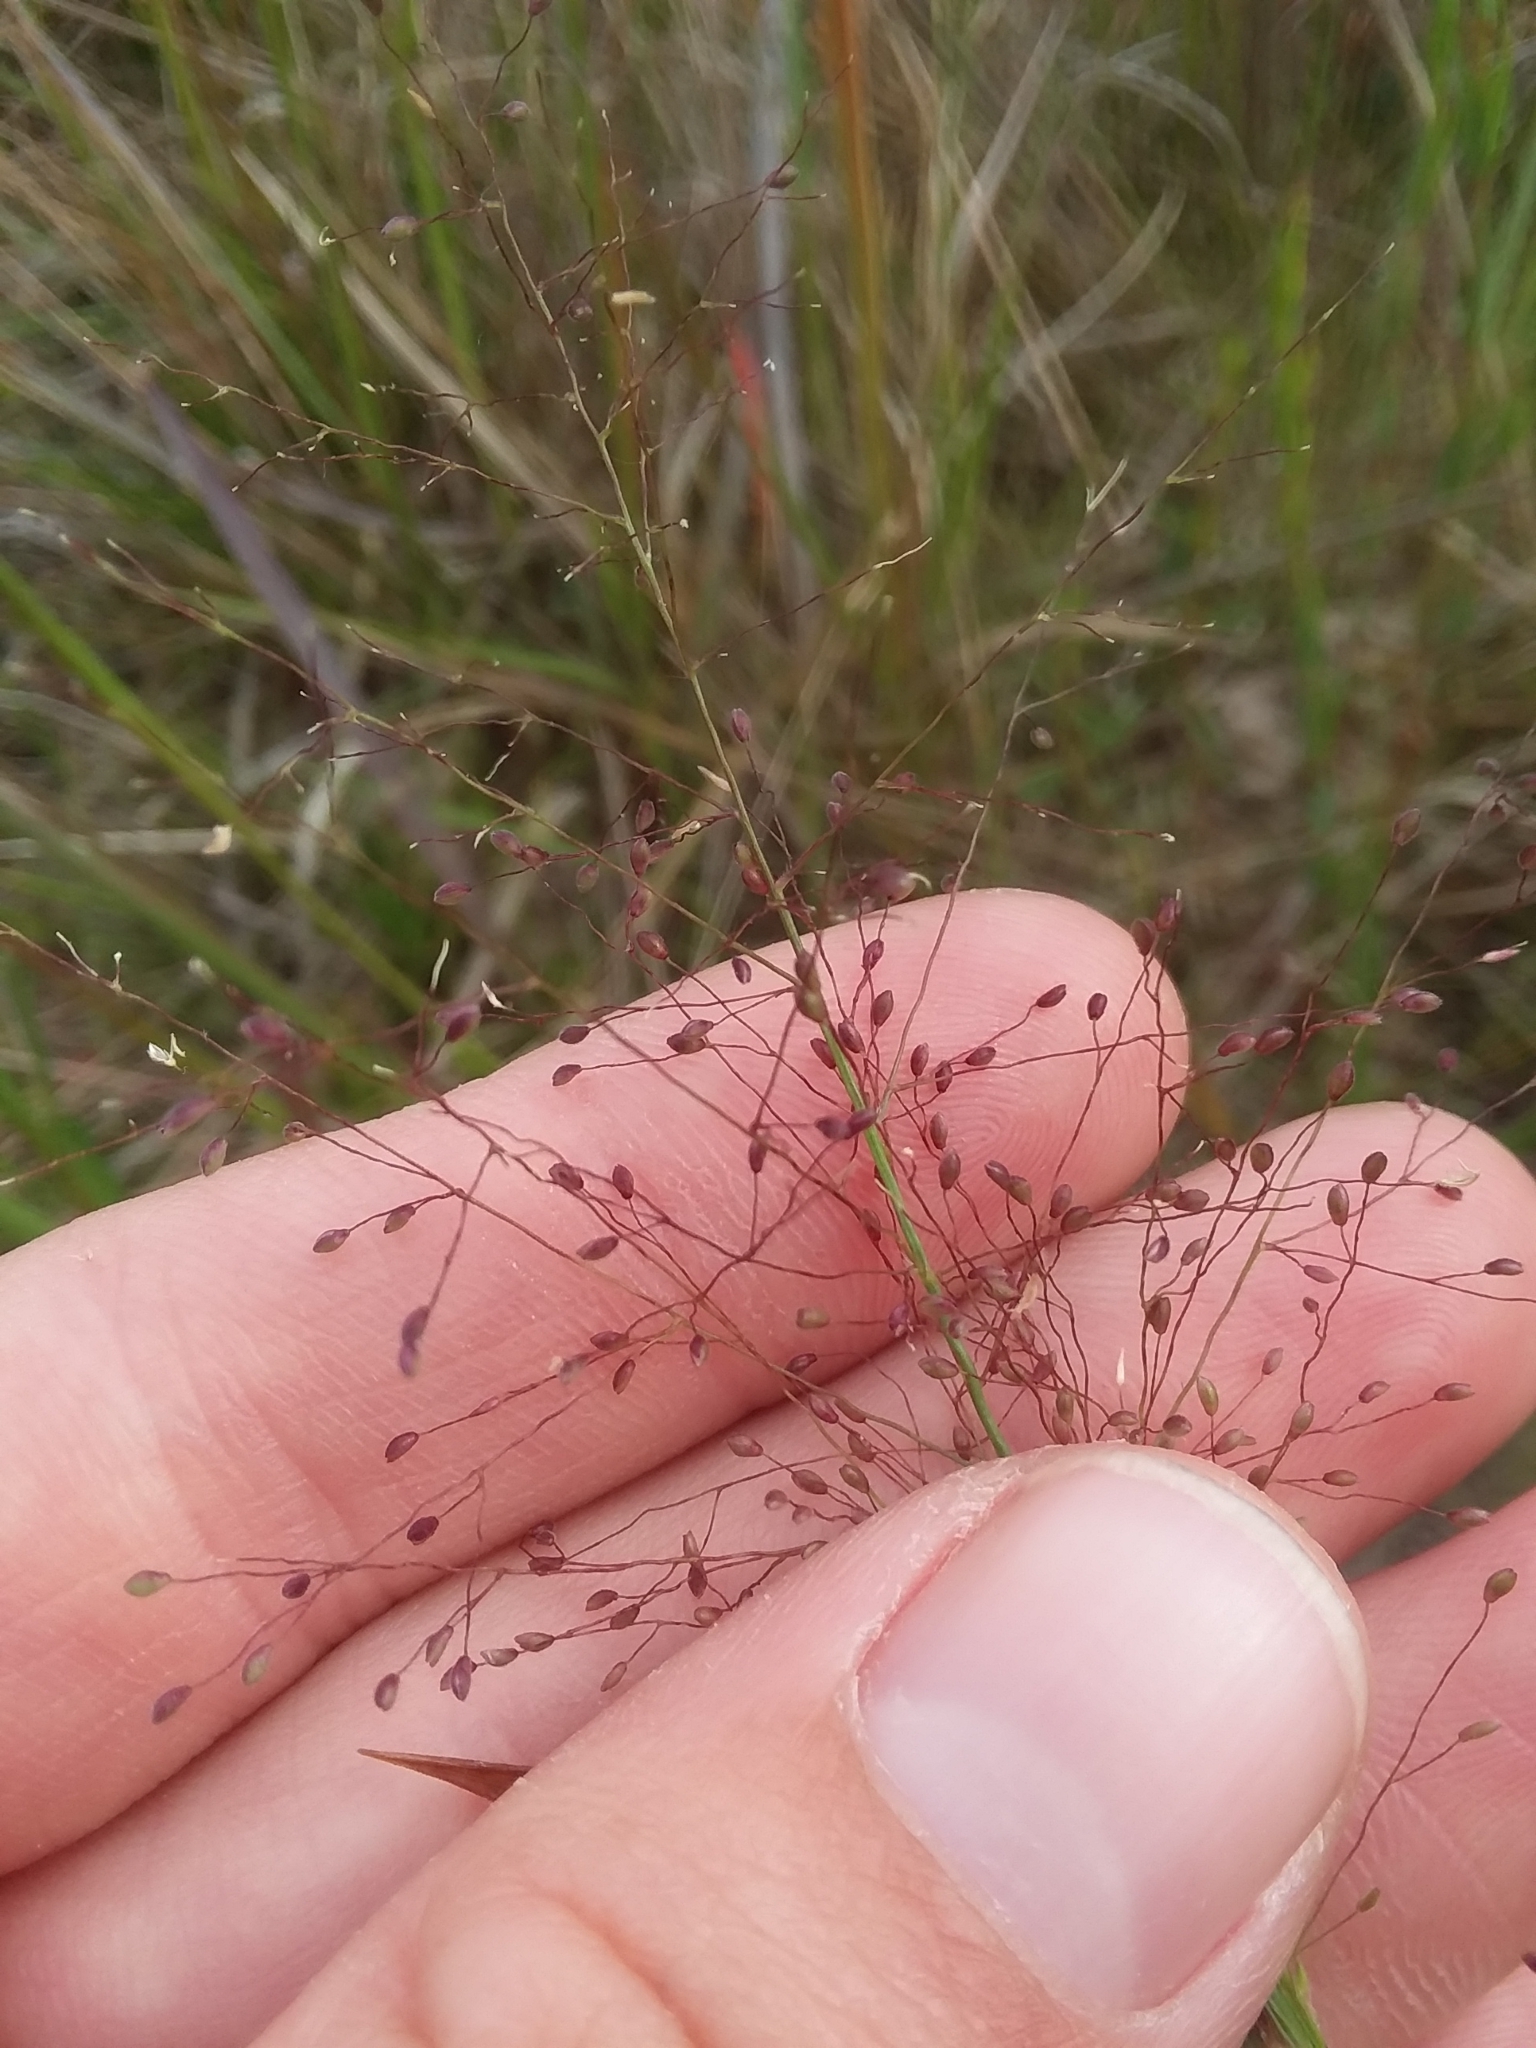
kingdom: Plantae
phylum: Tracheophyta
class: Liliopsida
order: Poales
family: Poaceae
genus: Dichanthelium
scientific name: Dichanthelium leucothrix
